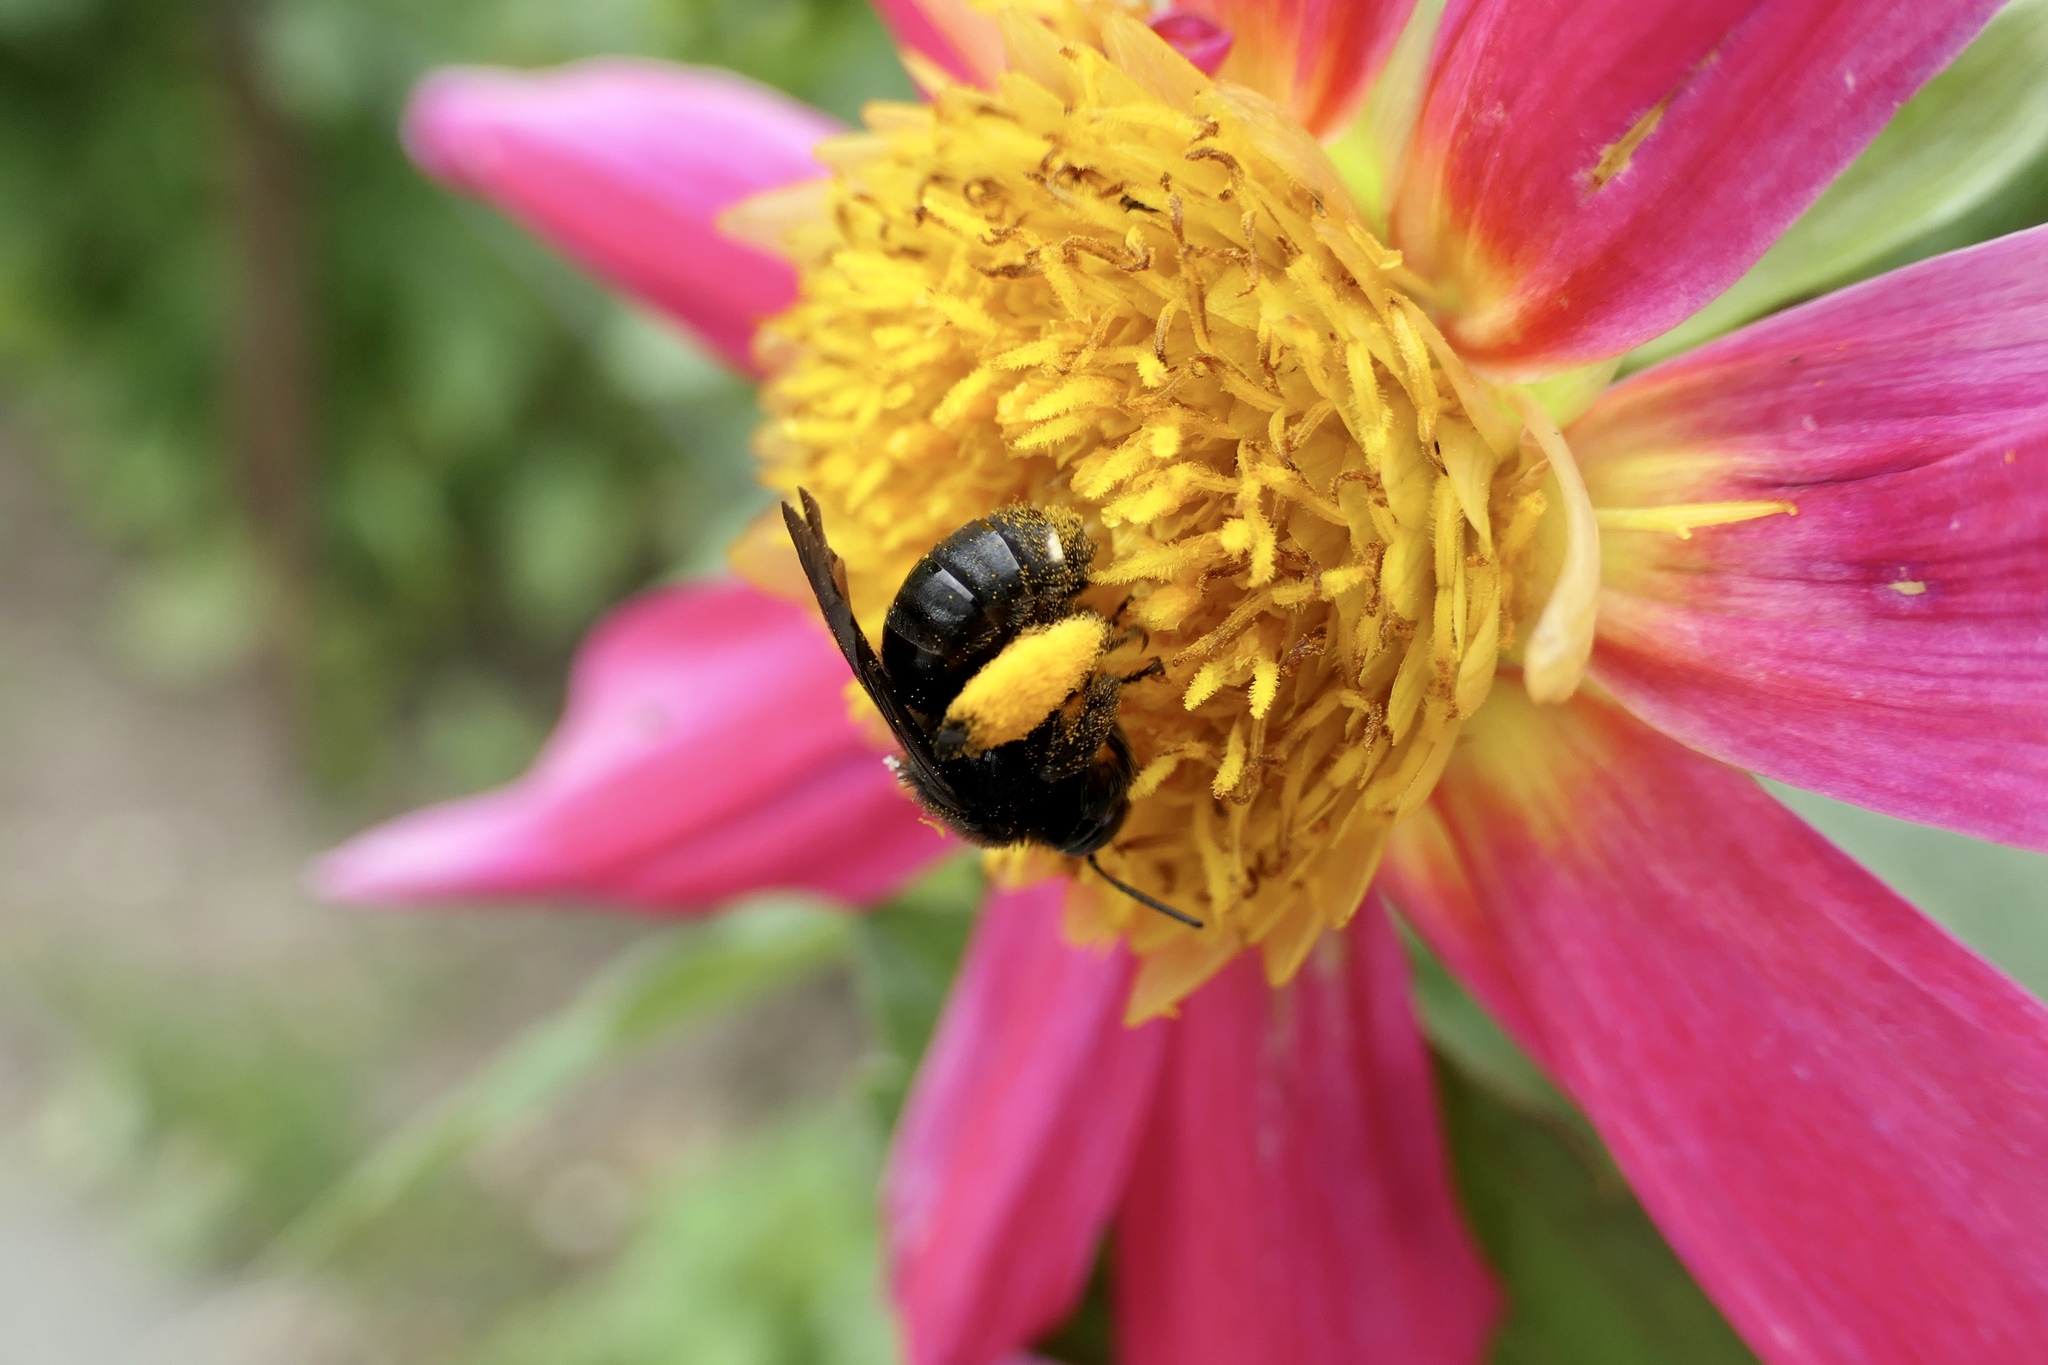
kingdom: Animalia
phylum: Arthropoda
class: Insecta
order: Hymenoptera
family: Apidae
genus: Melissodes
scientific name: Melissodes bimaculatus
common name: Two-spotted long-horned bee
